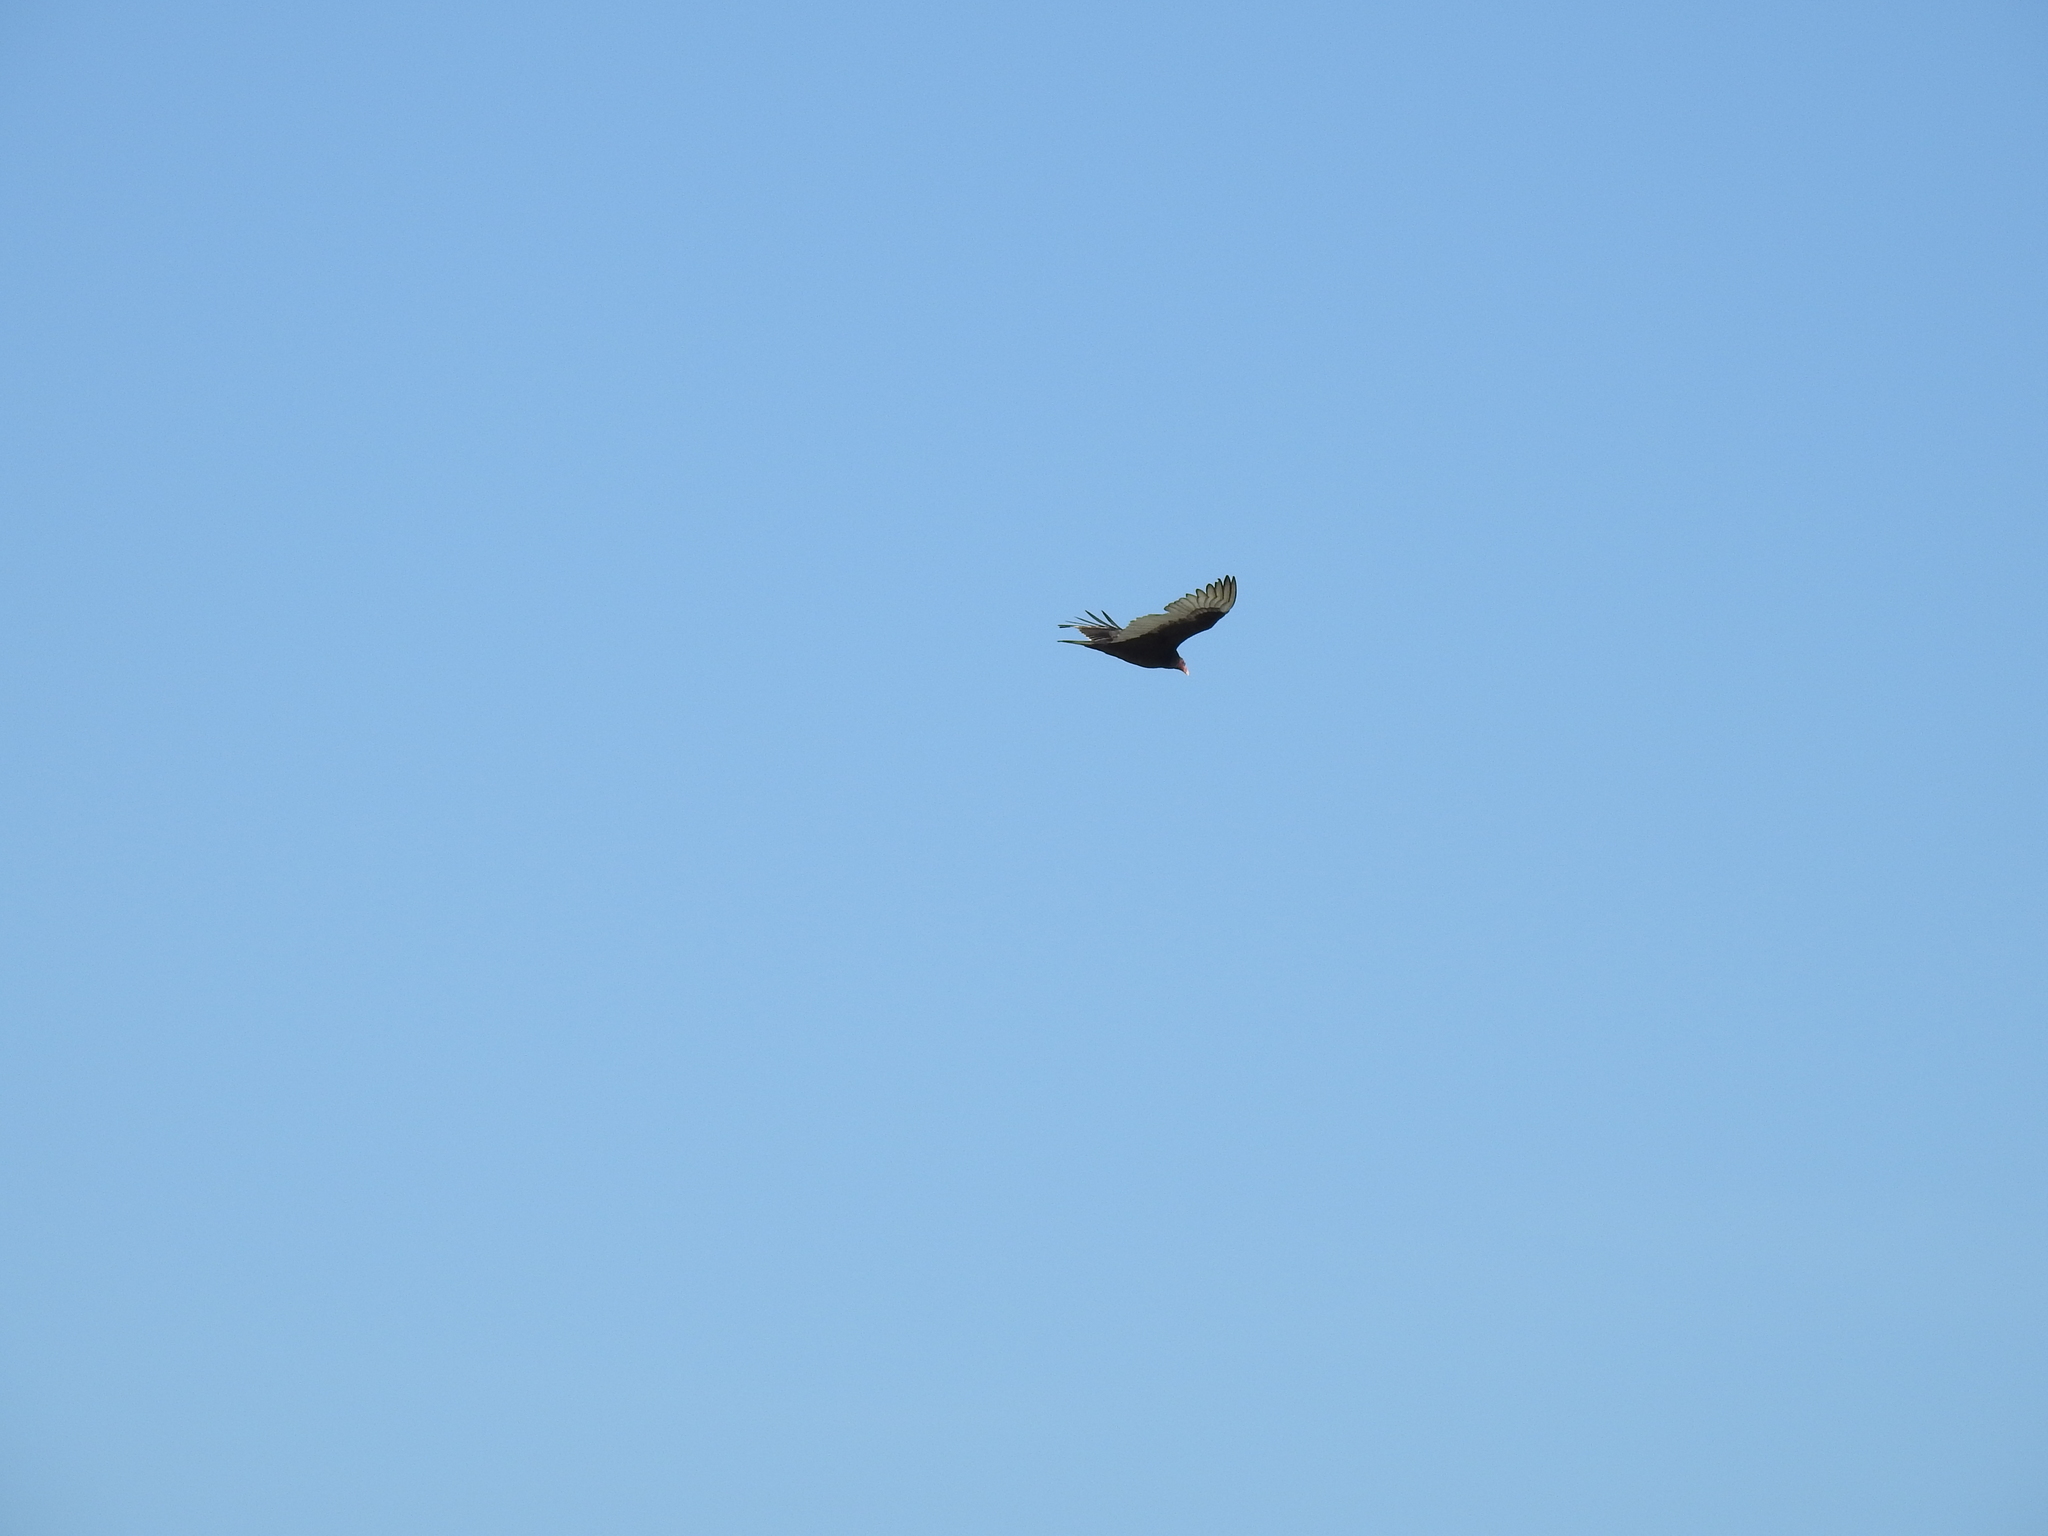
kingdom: Animalia
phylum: Chordata
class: Aves
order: Accipitriformes
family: Cathartidae
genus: Cathartes
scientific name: Cathartes aura
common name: Turkey vulture
